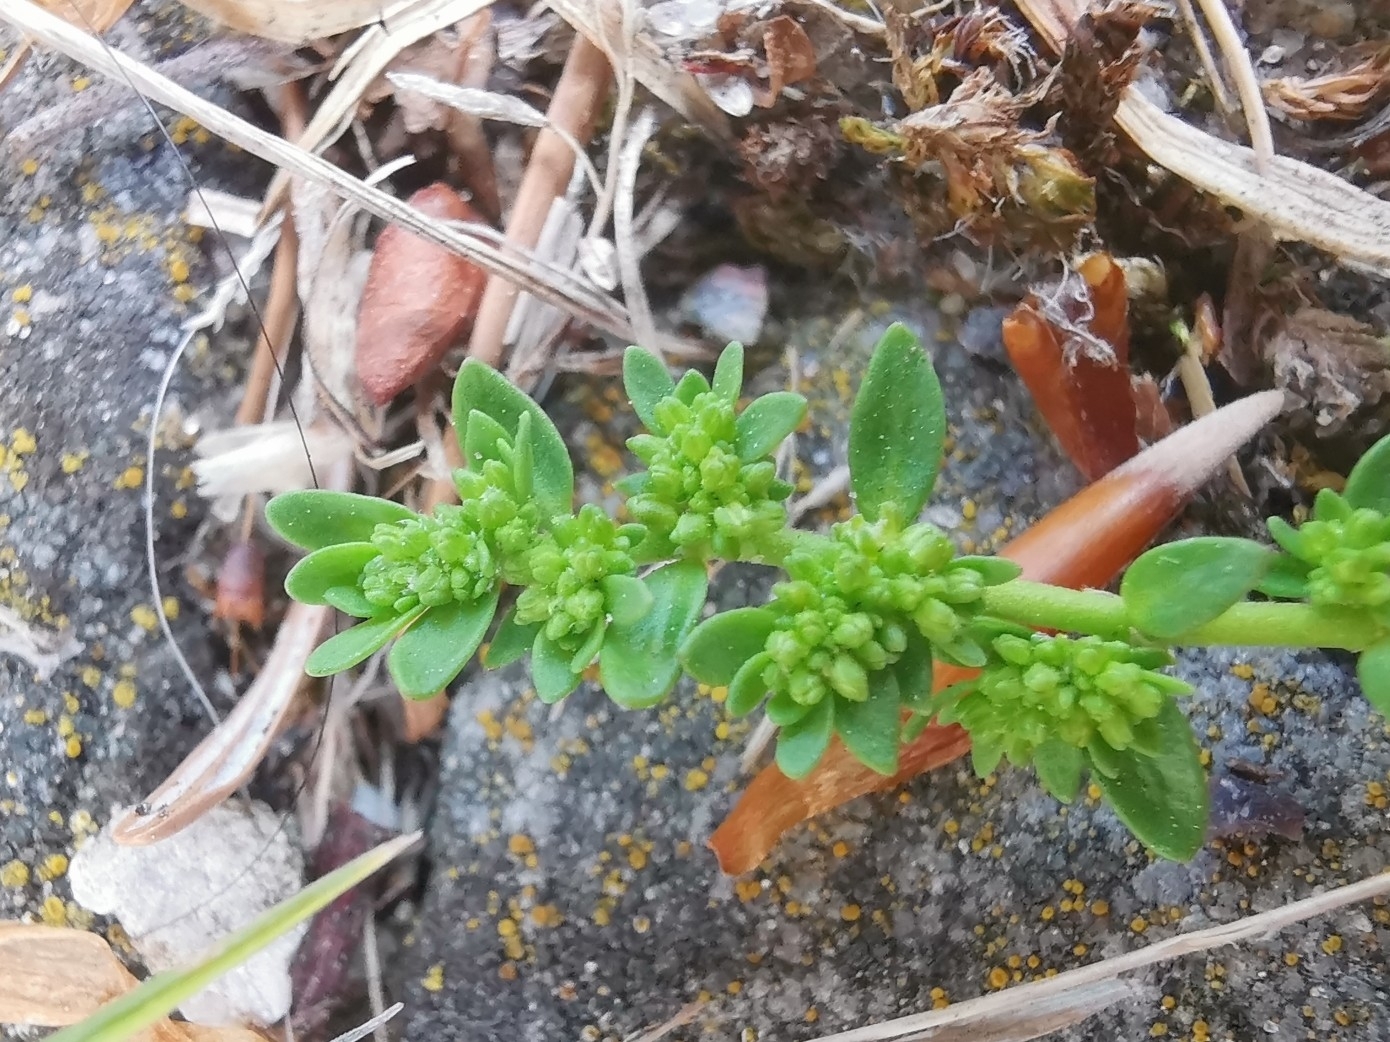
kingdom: Plantae
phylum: Tracheophyta
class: Magnoliopsida
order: Caryophyllales
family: Caryophyllaceae
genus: Herniaria
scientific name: Herniaria glabra
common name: Smooth rupturewort
